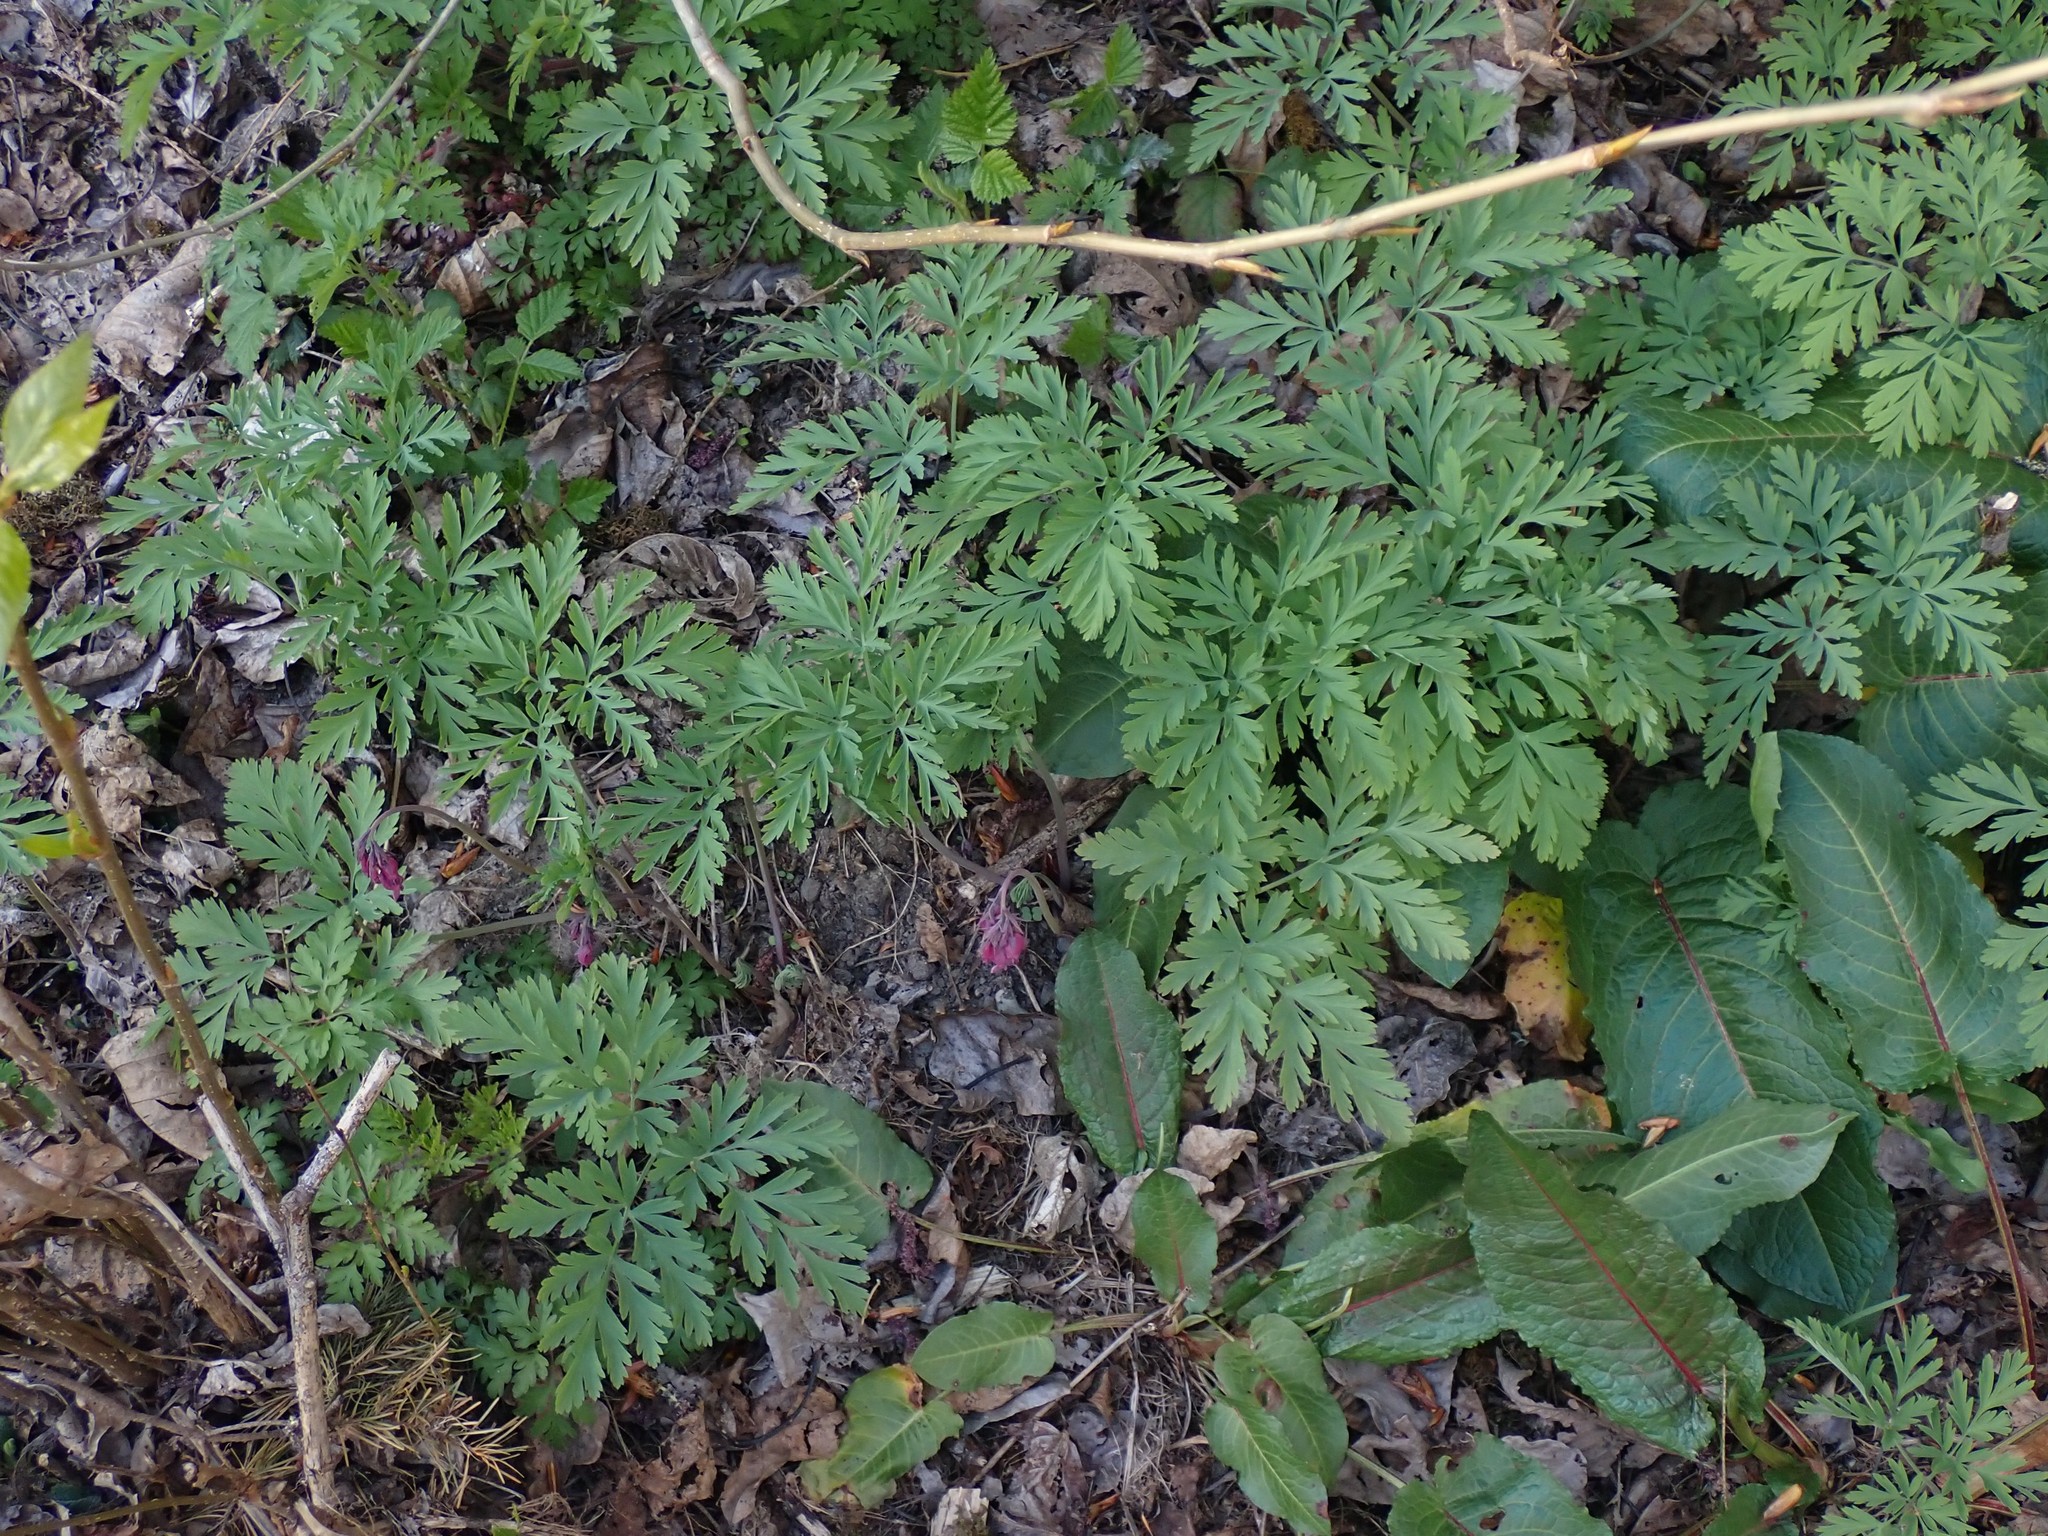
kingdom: Plantae
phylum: Tracheophyta
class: Magnoliopsida
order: Ranunculales
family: Papaveraceae
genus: Dicentra
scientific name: Dicentra formosa
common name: Bleeding-heart
